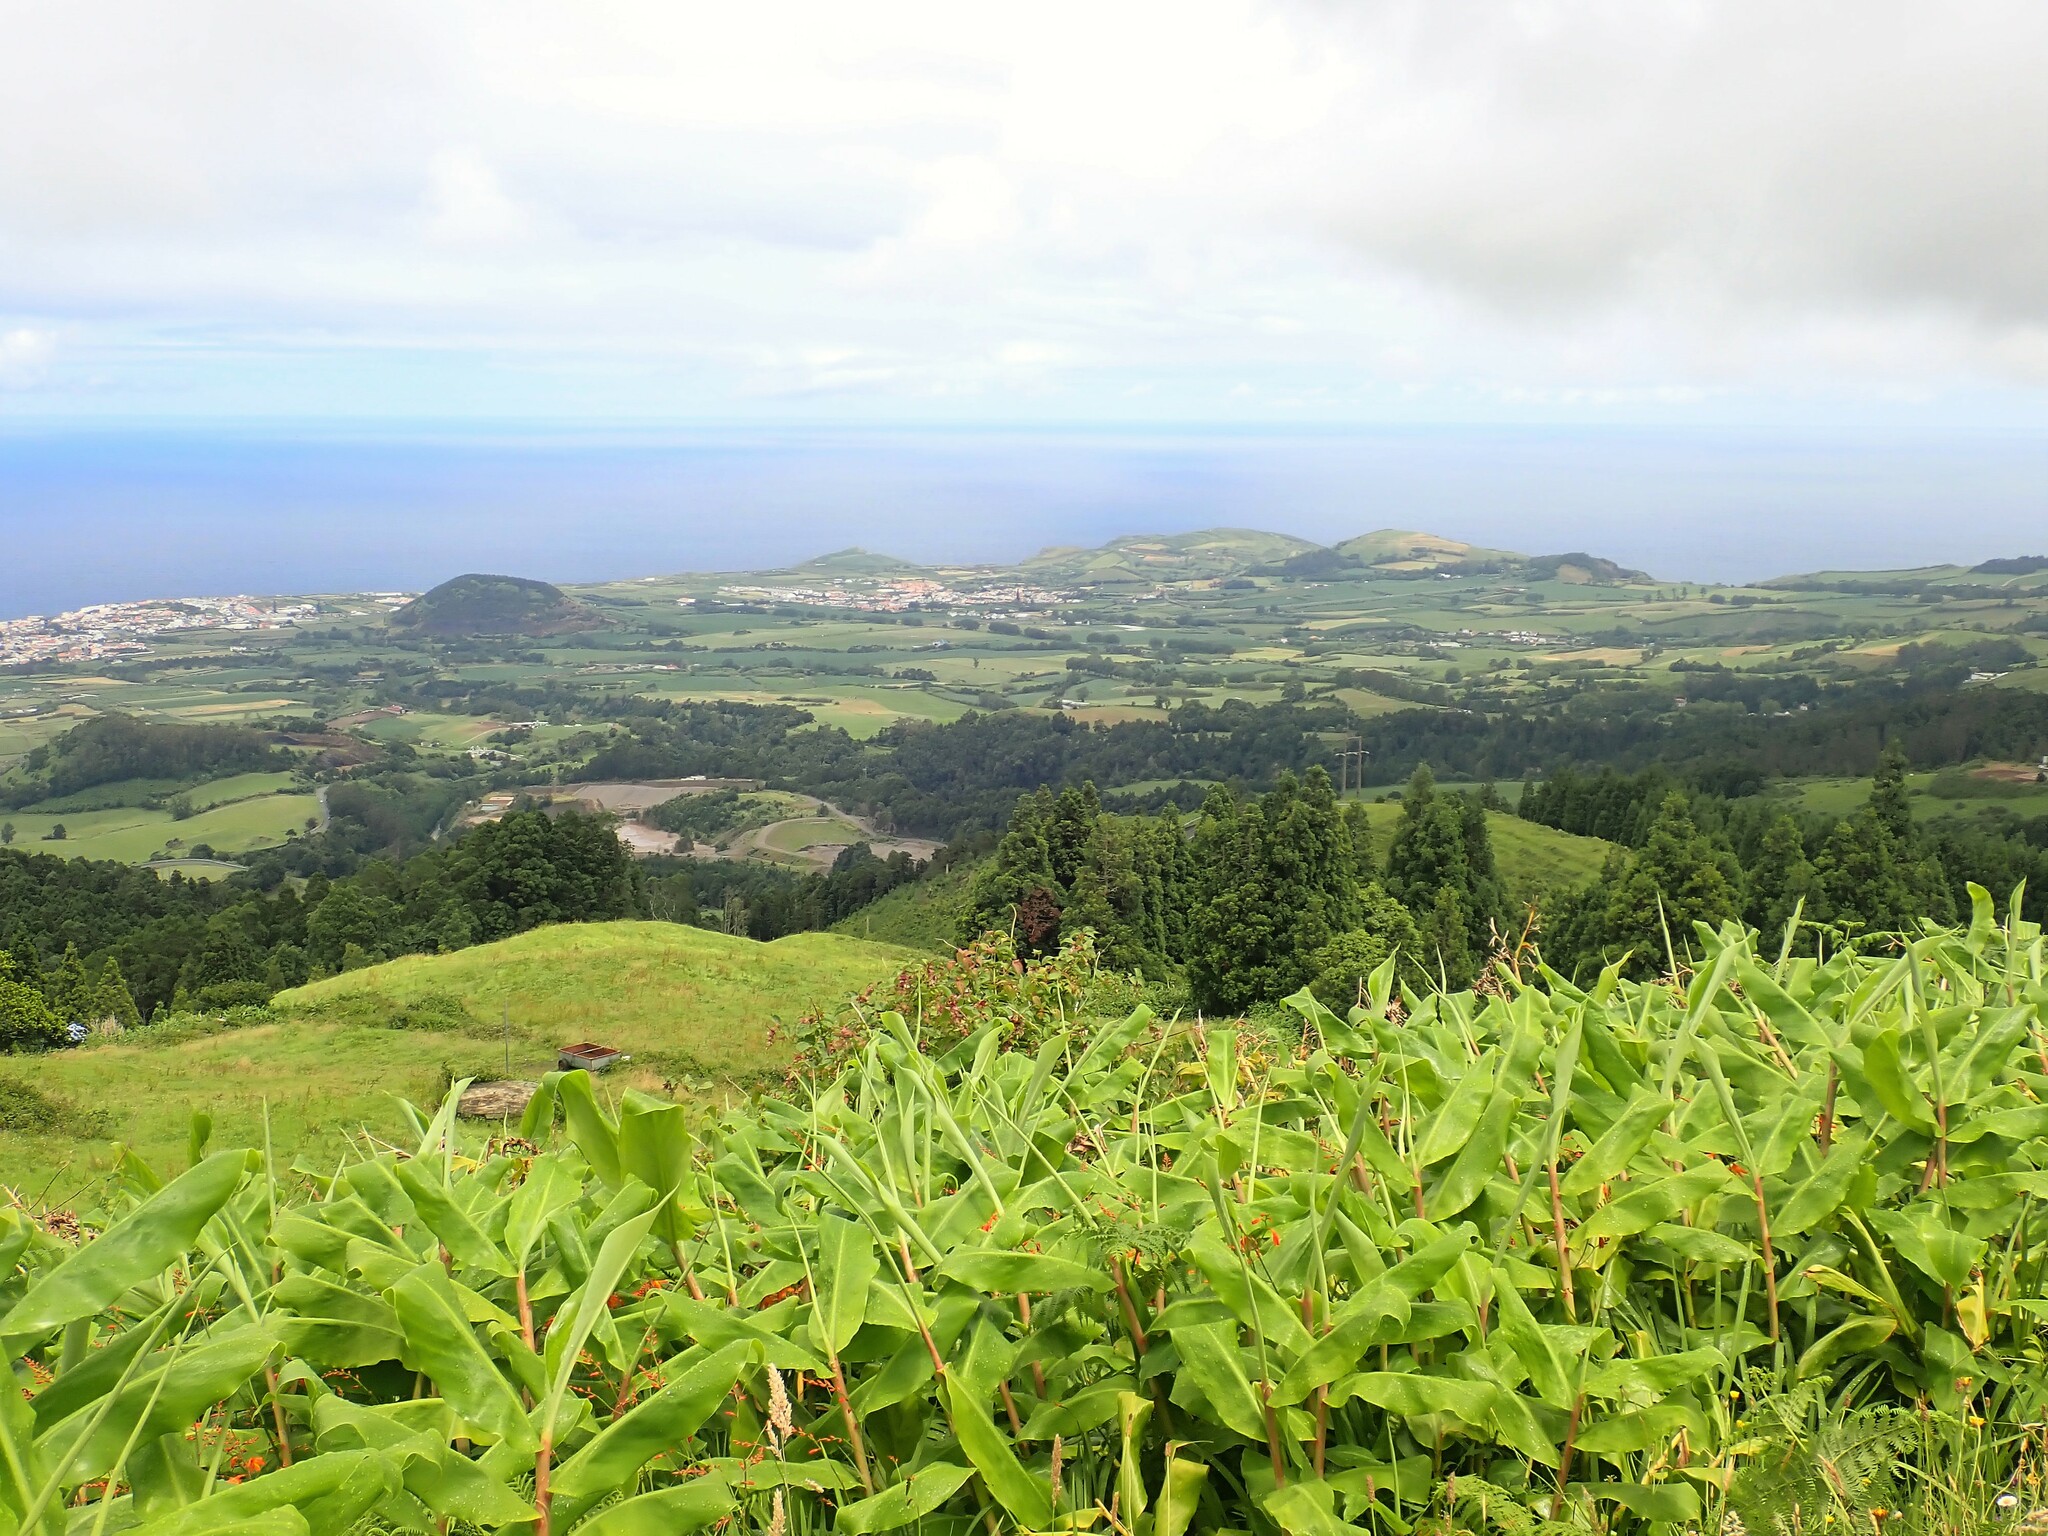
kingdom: Plantae
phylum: Tracheophyta
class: Liliopsida
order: Zingiberales
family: Zingiberaceae
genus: Hedychium
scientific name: Hedychium gardnerianum
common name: Himalayan ginger
